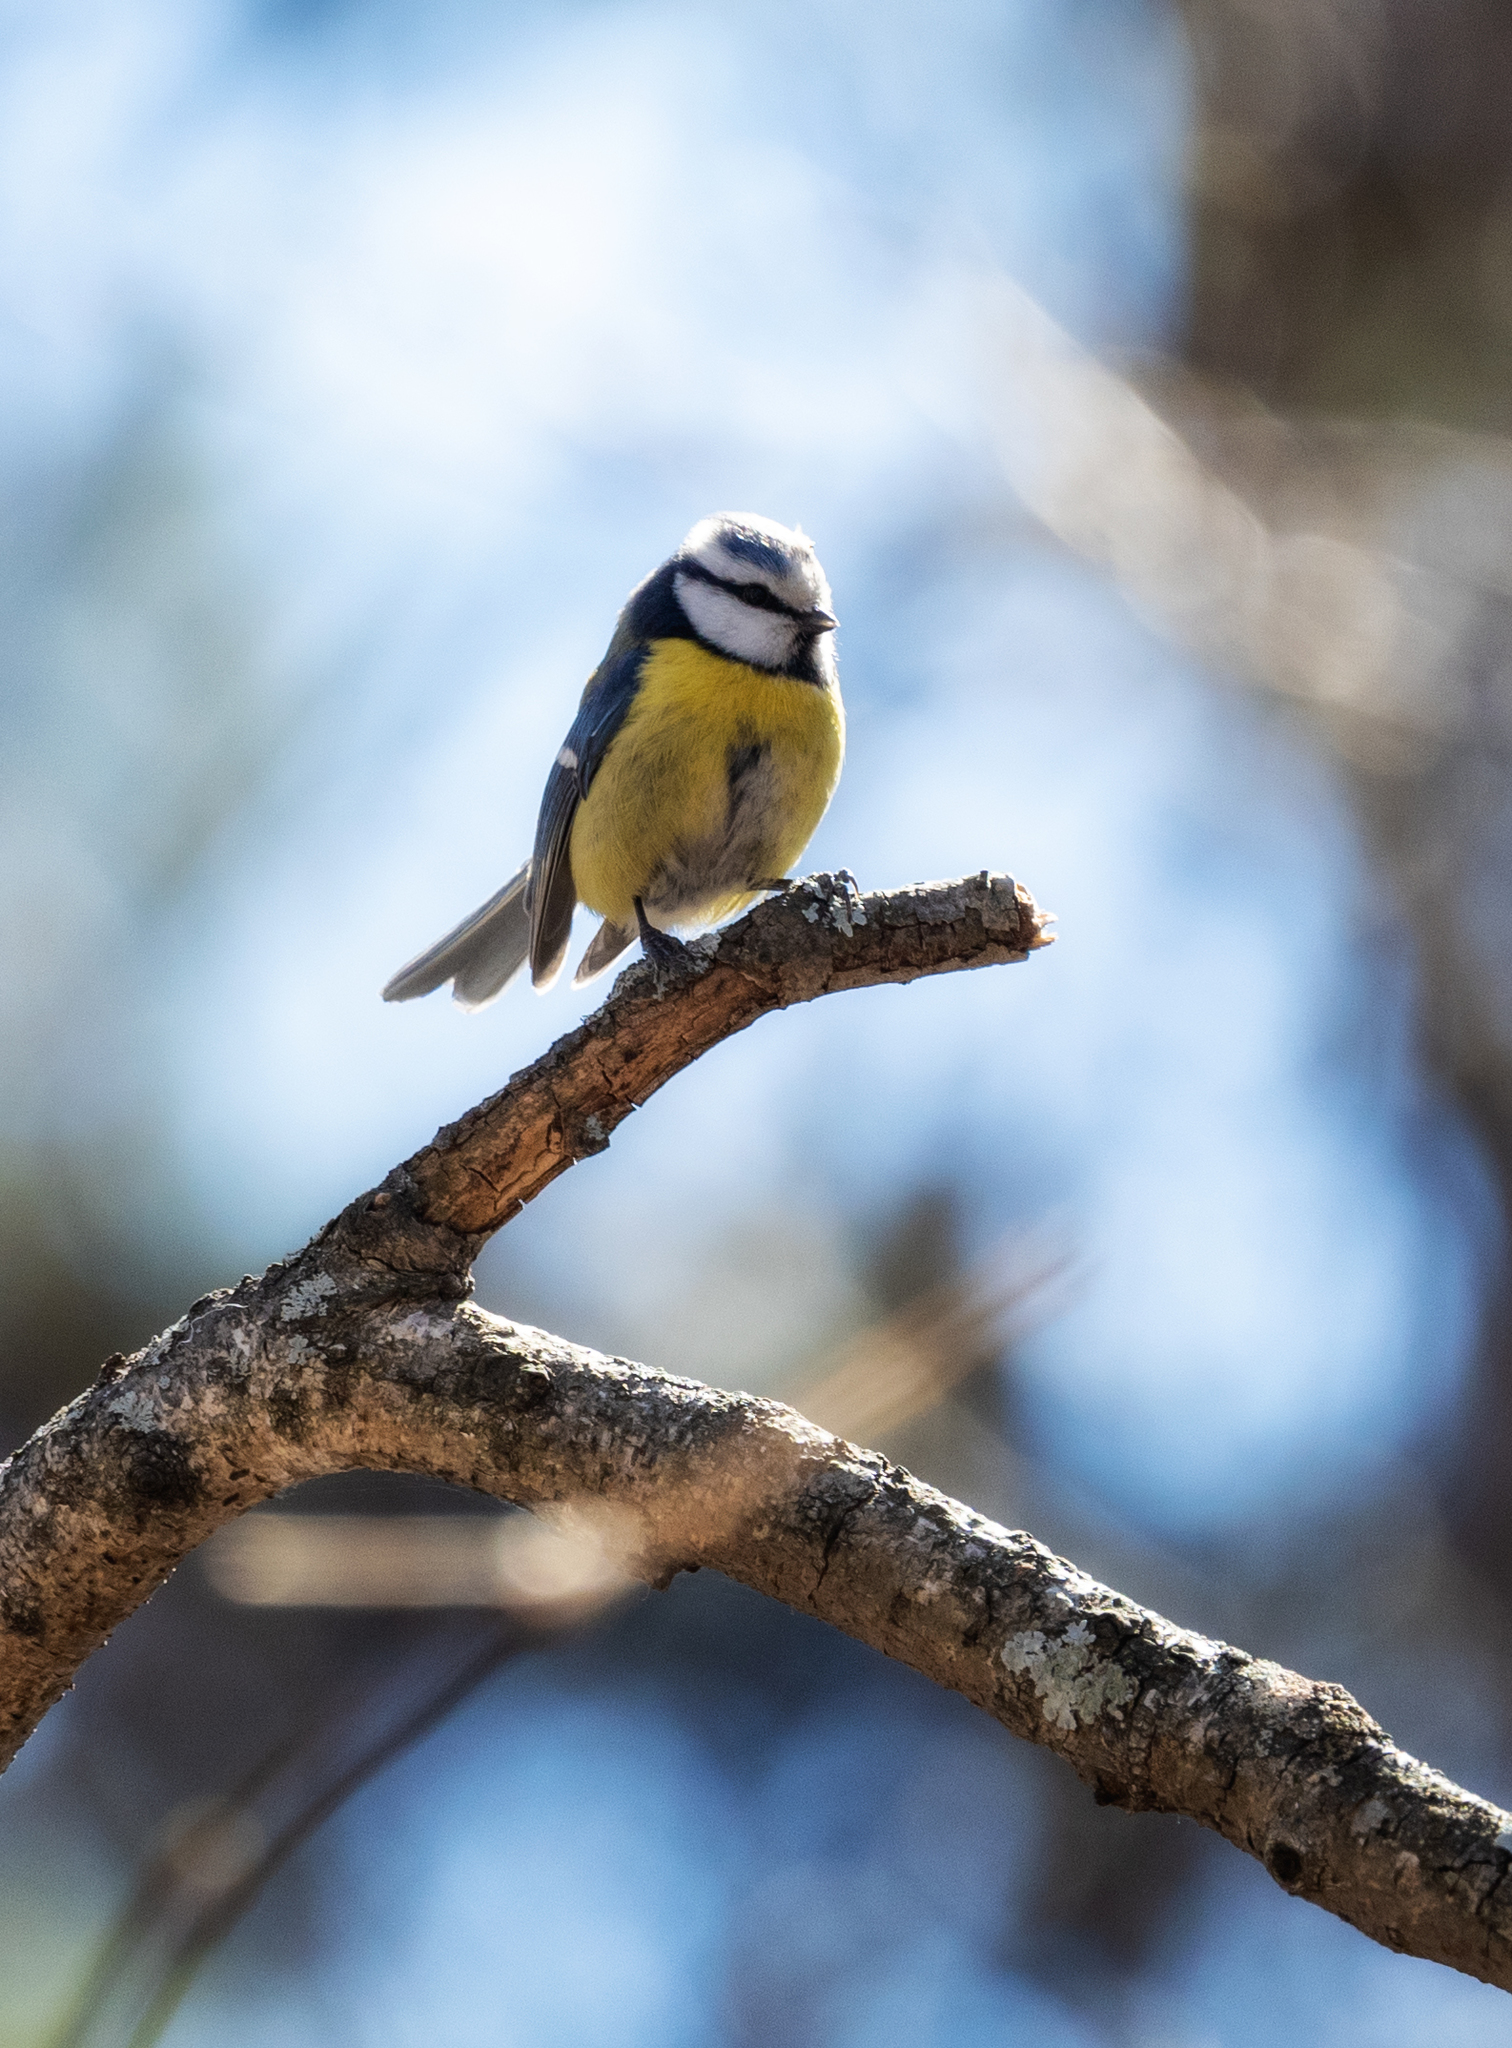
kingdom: Animalia
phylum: Chordata
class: Aves
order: Passeriformes
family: Paridae
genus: Cyanistes
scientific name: Cyanistes caeruleus
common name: Eurasian blue tit
